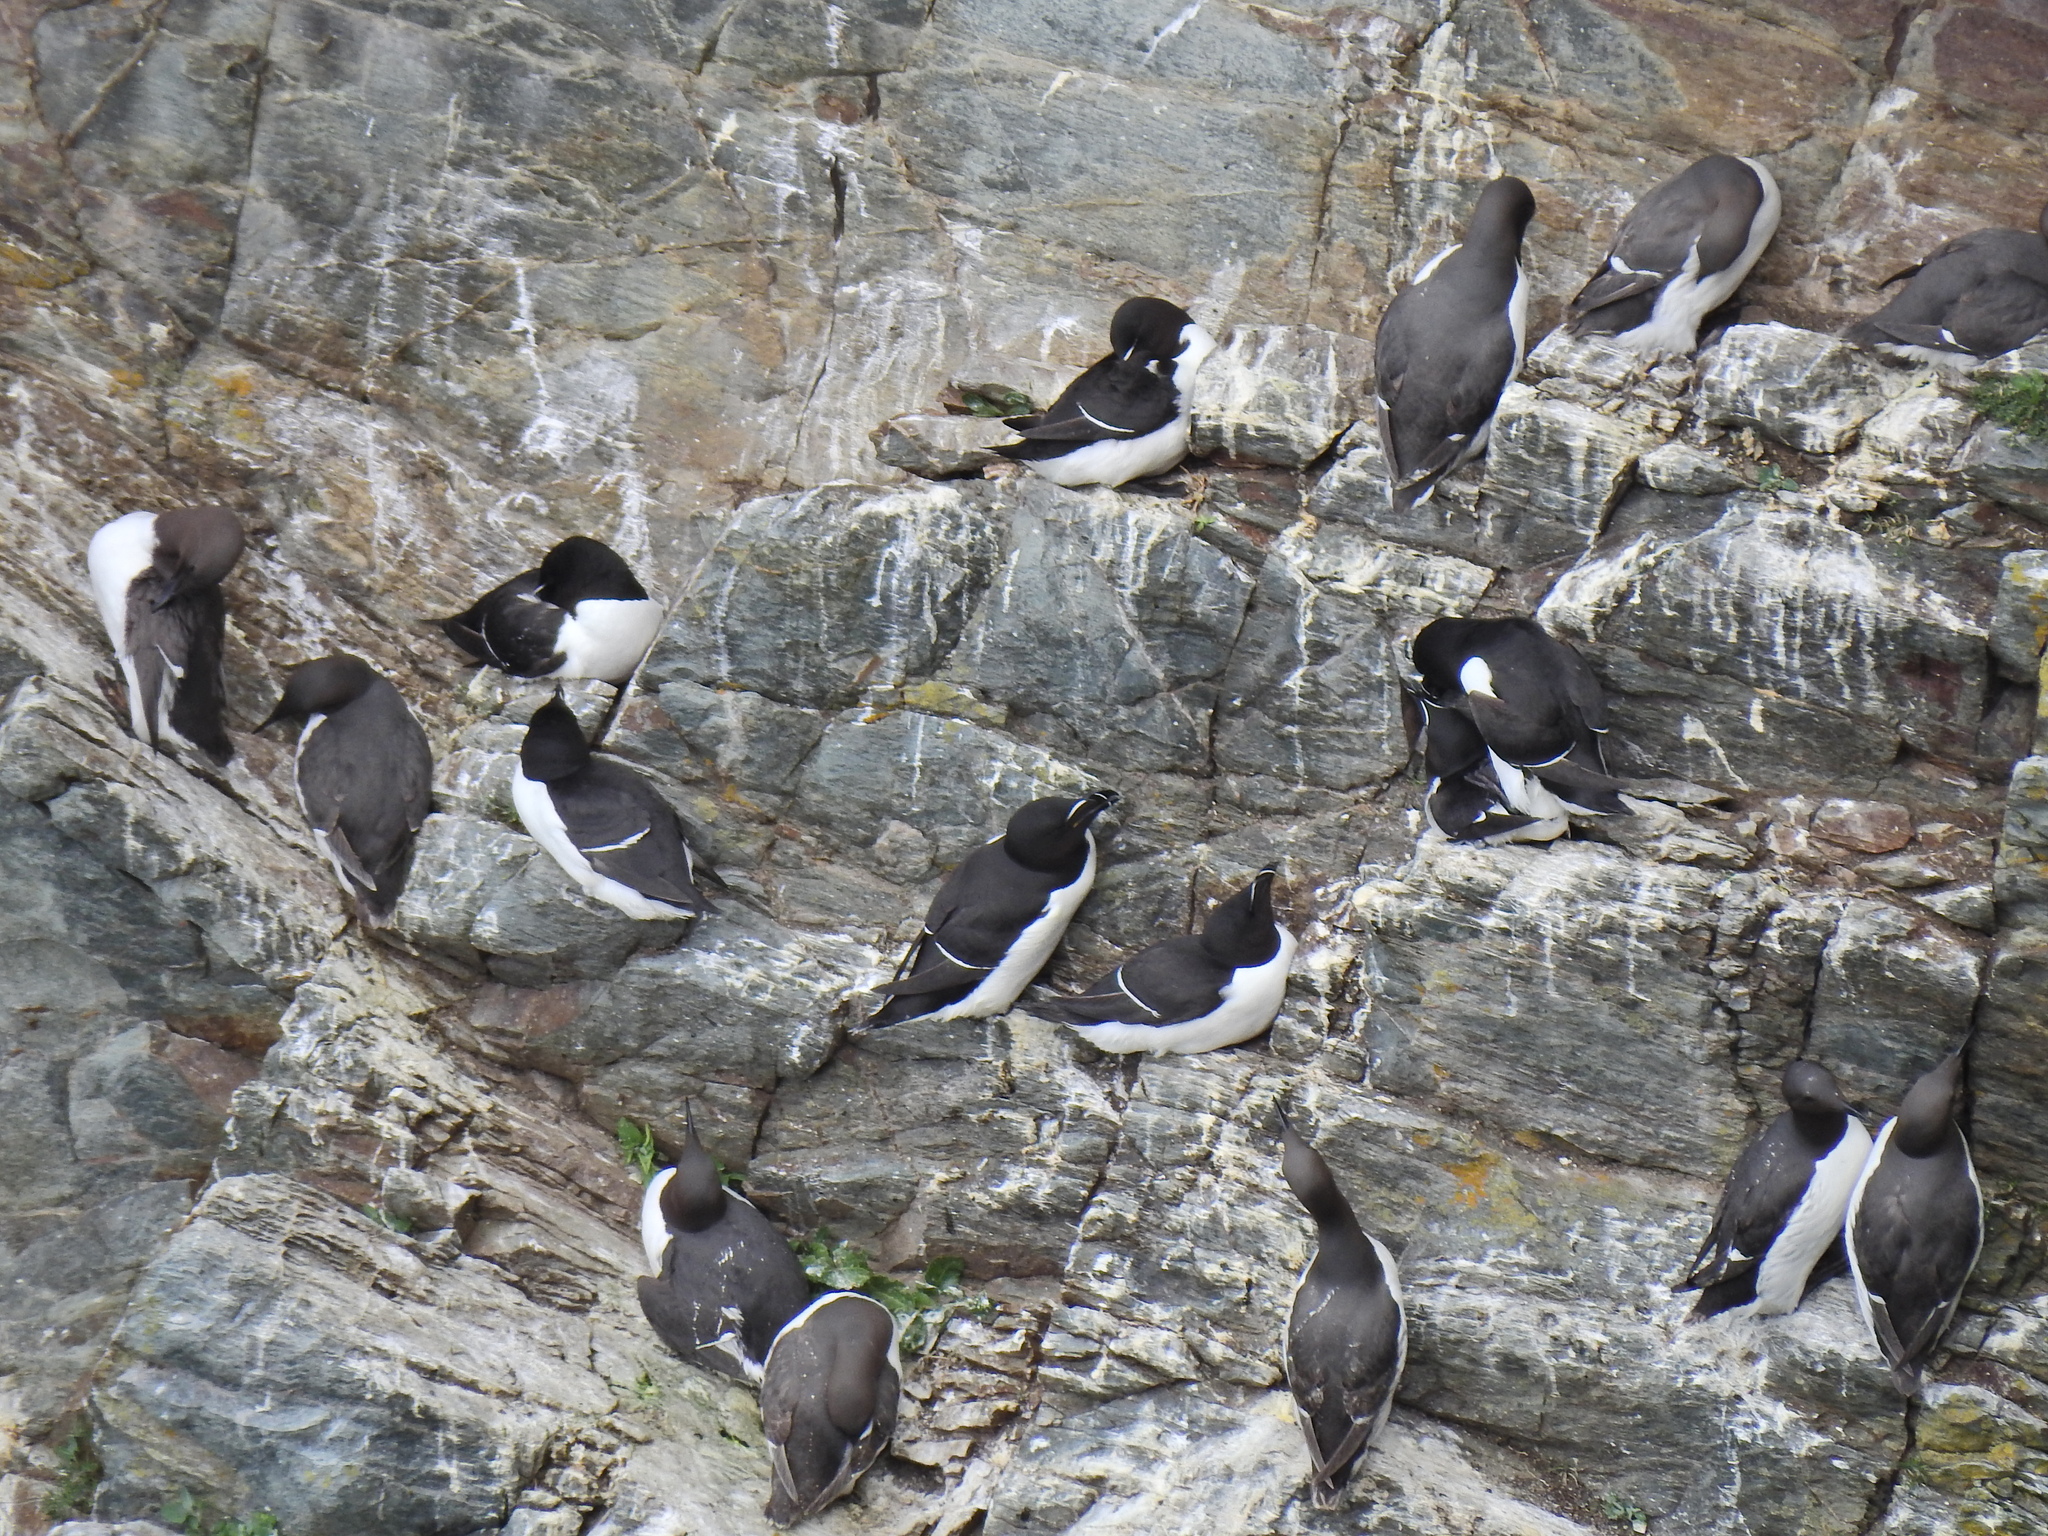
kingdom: Animalia
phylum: Chordata
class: Aves
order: Charadriiformes
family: Alcidae
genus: Alca
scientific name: Alca torda
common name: Razorbill
